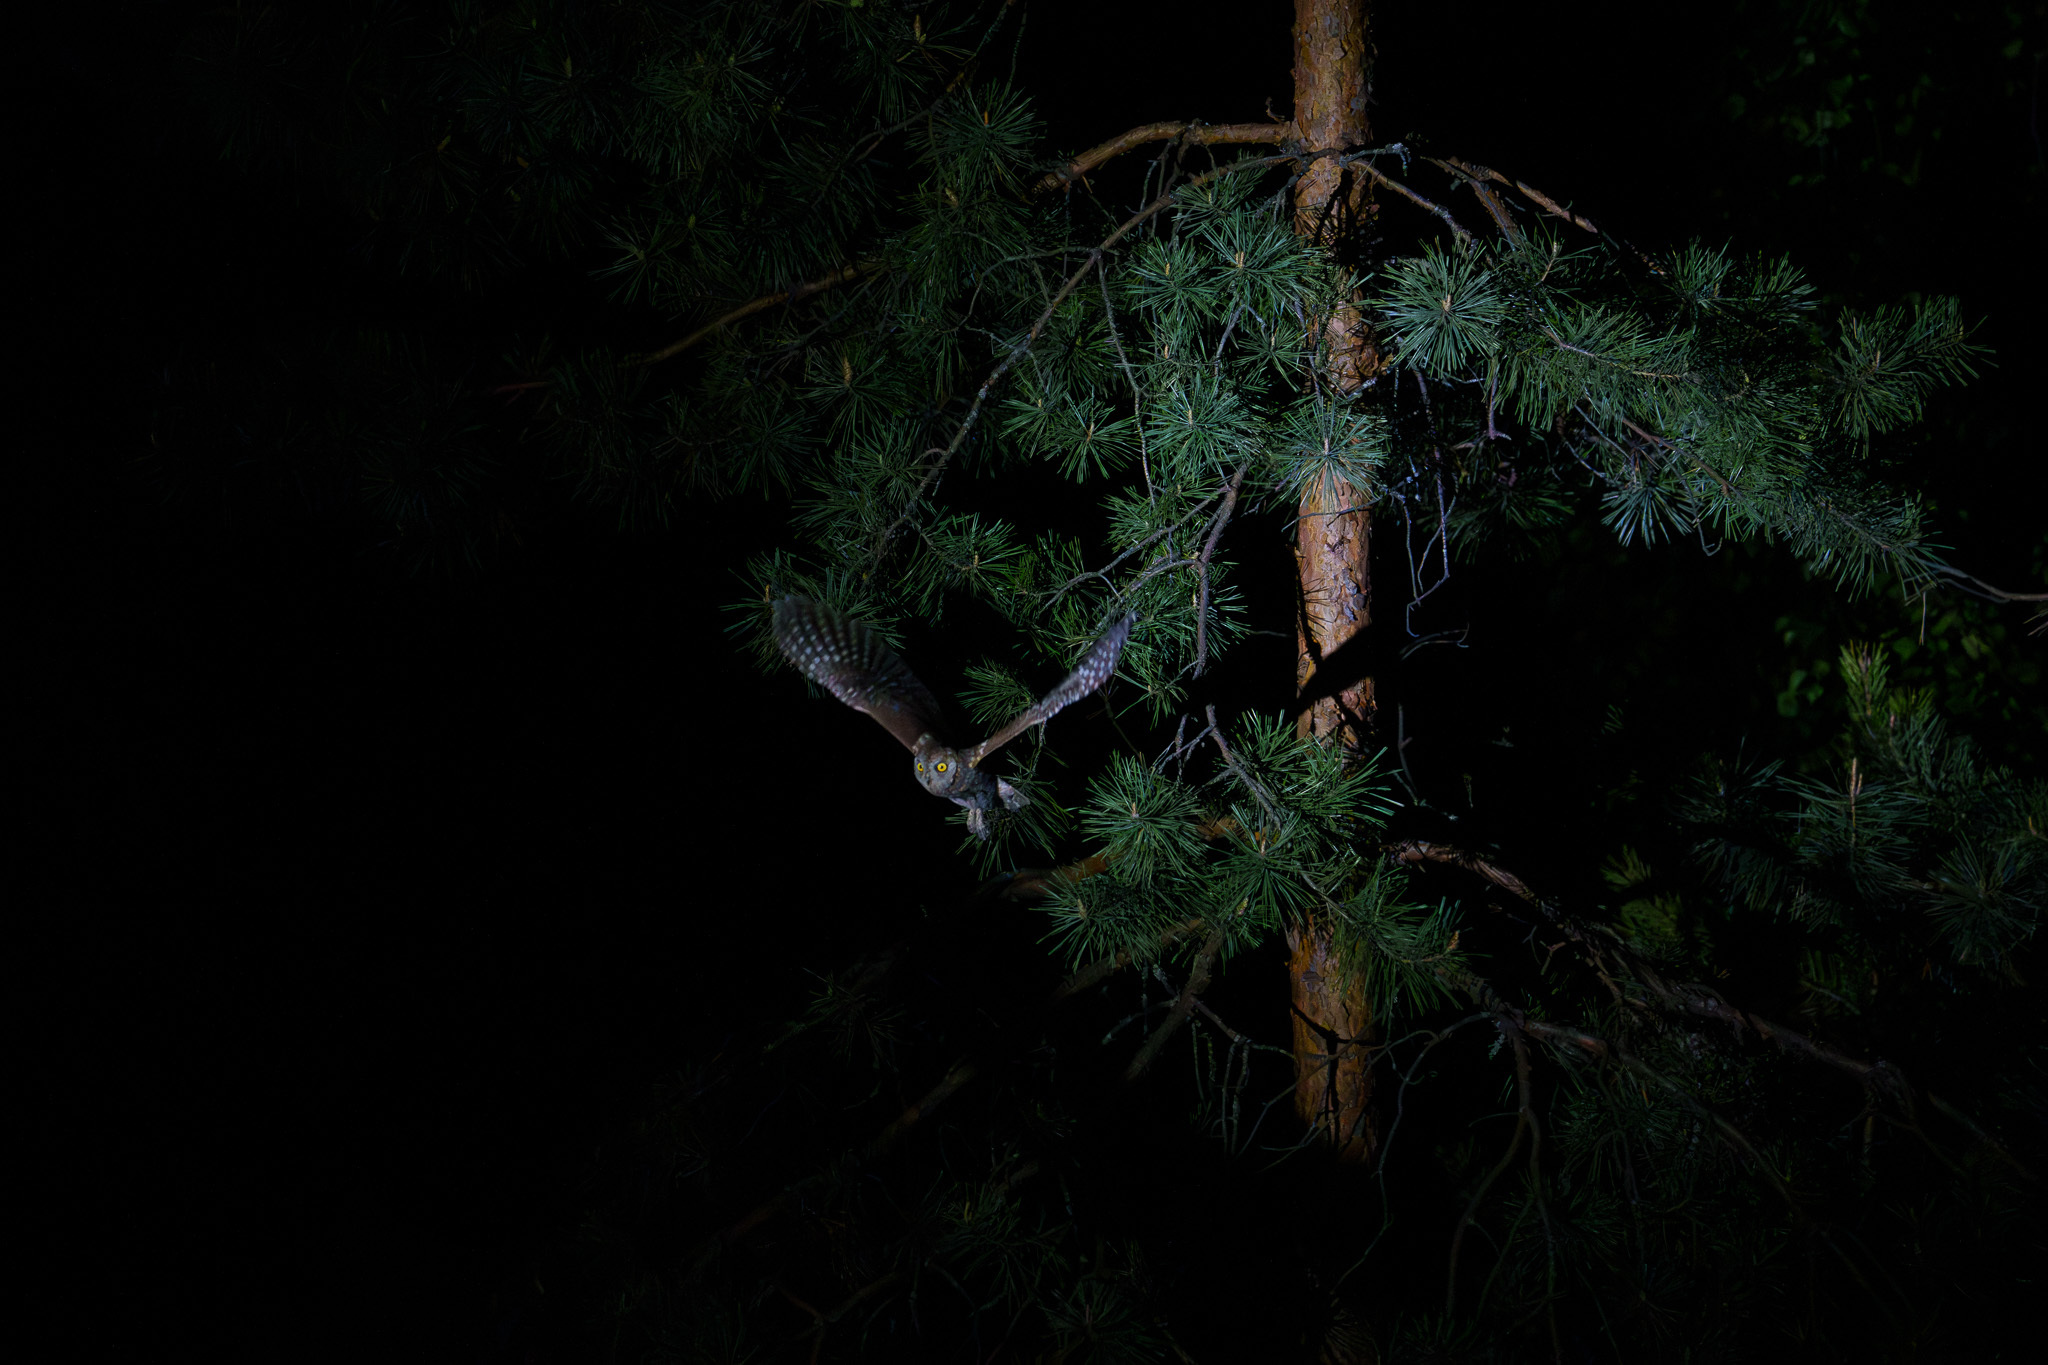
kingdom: Animalia
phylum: Chordata
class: Aves
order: Strigiformes
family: Strigidae
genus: Otus
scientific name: Otus scops
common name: Eurasian scops owl
